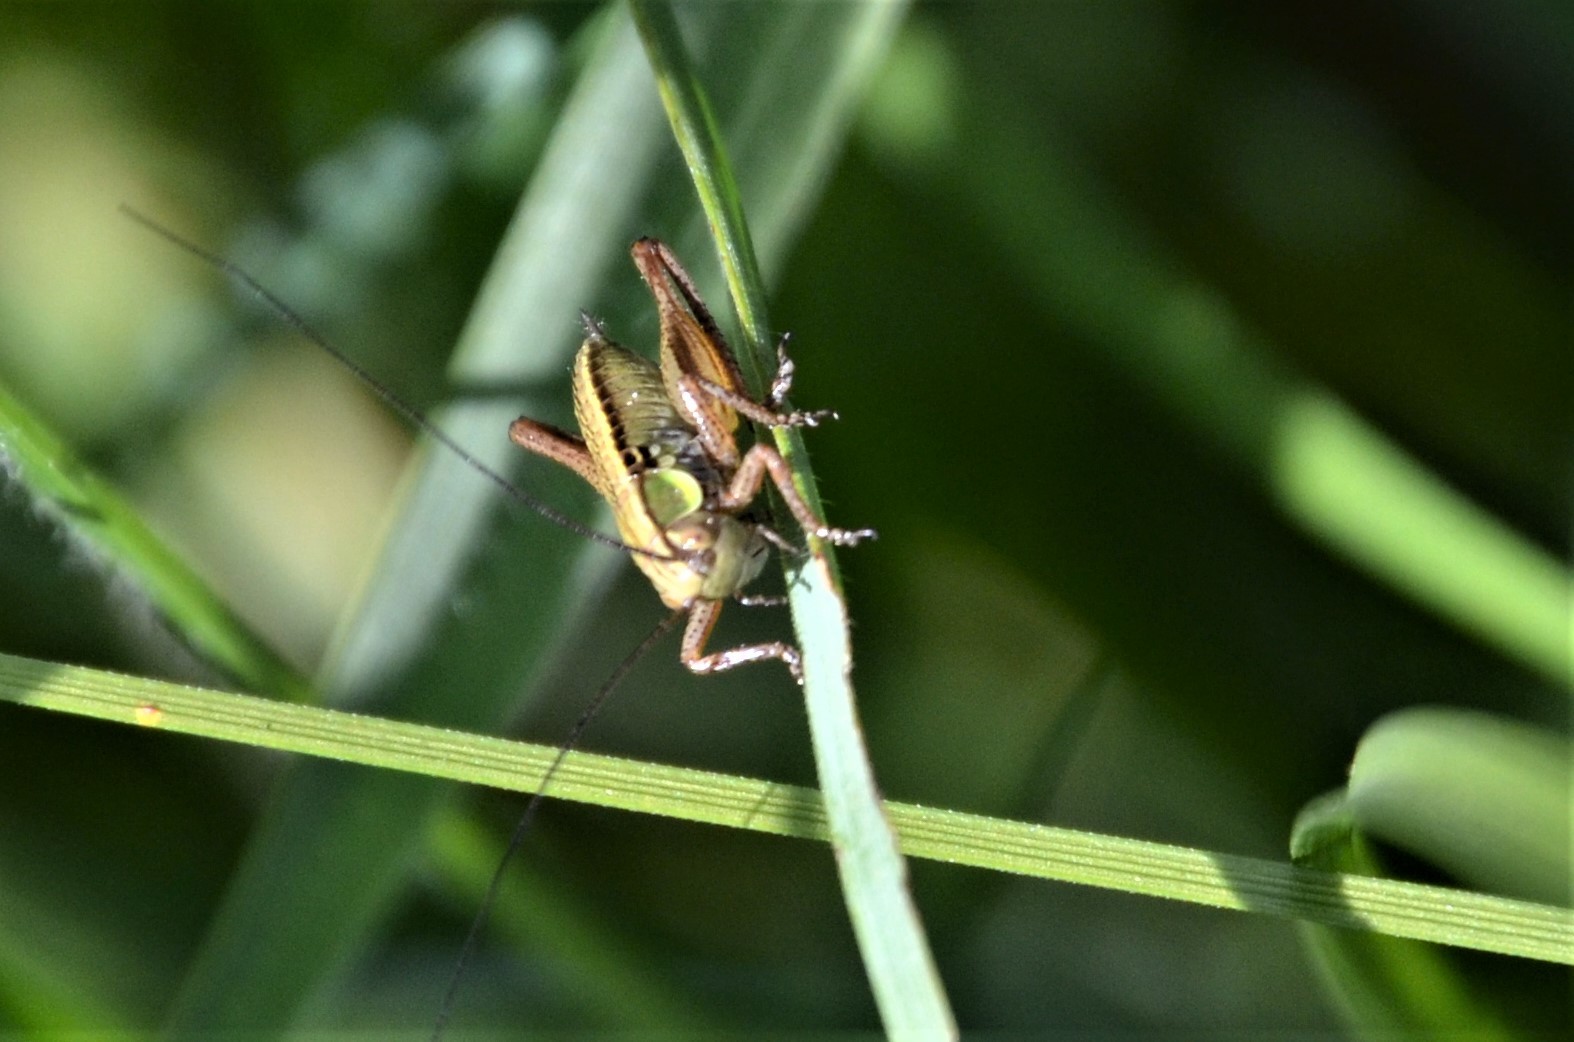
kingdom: Animalia
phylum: Arthropoda
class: Insecta
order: Orthoptera
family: Tettigoniidae
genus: Roeseliana
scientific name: Roeseliana roeselii
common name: Roesel's bush cricket
